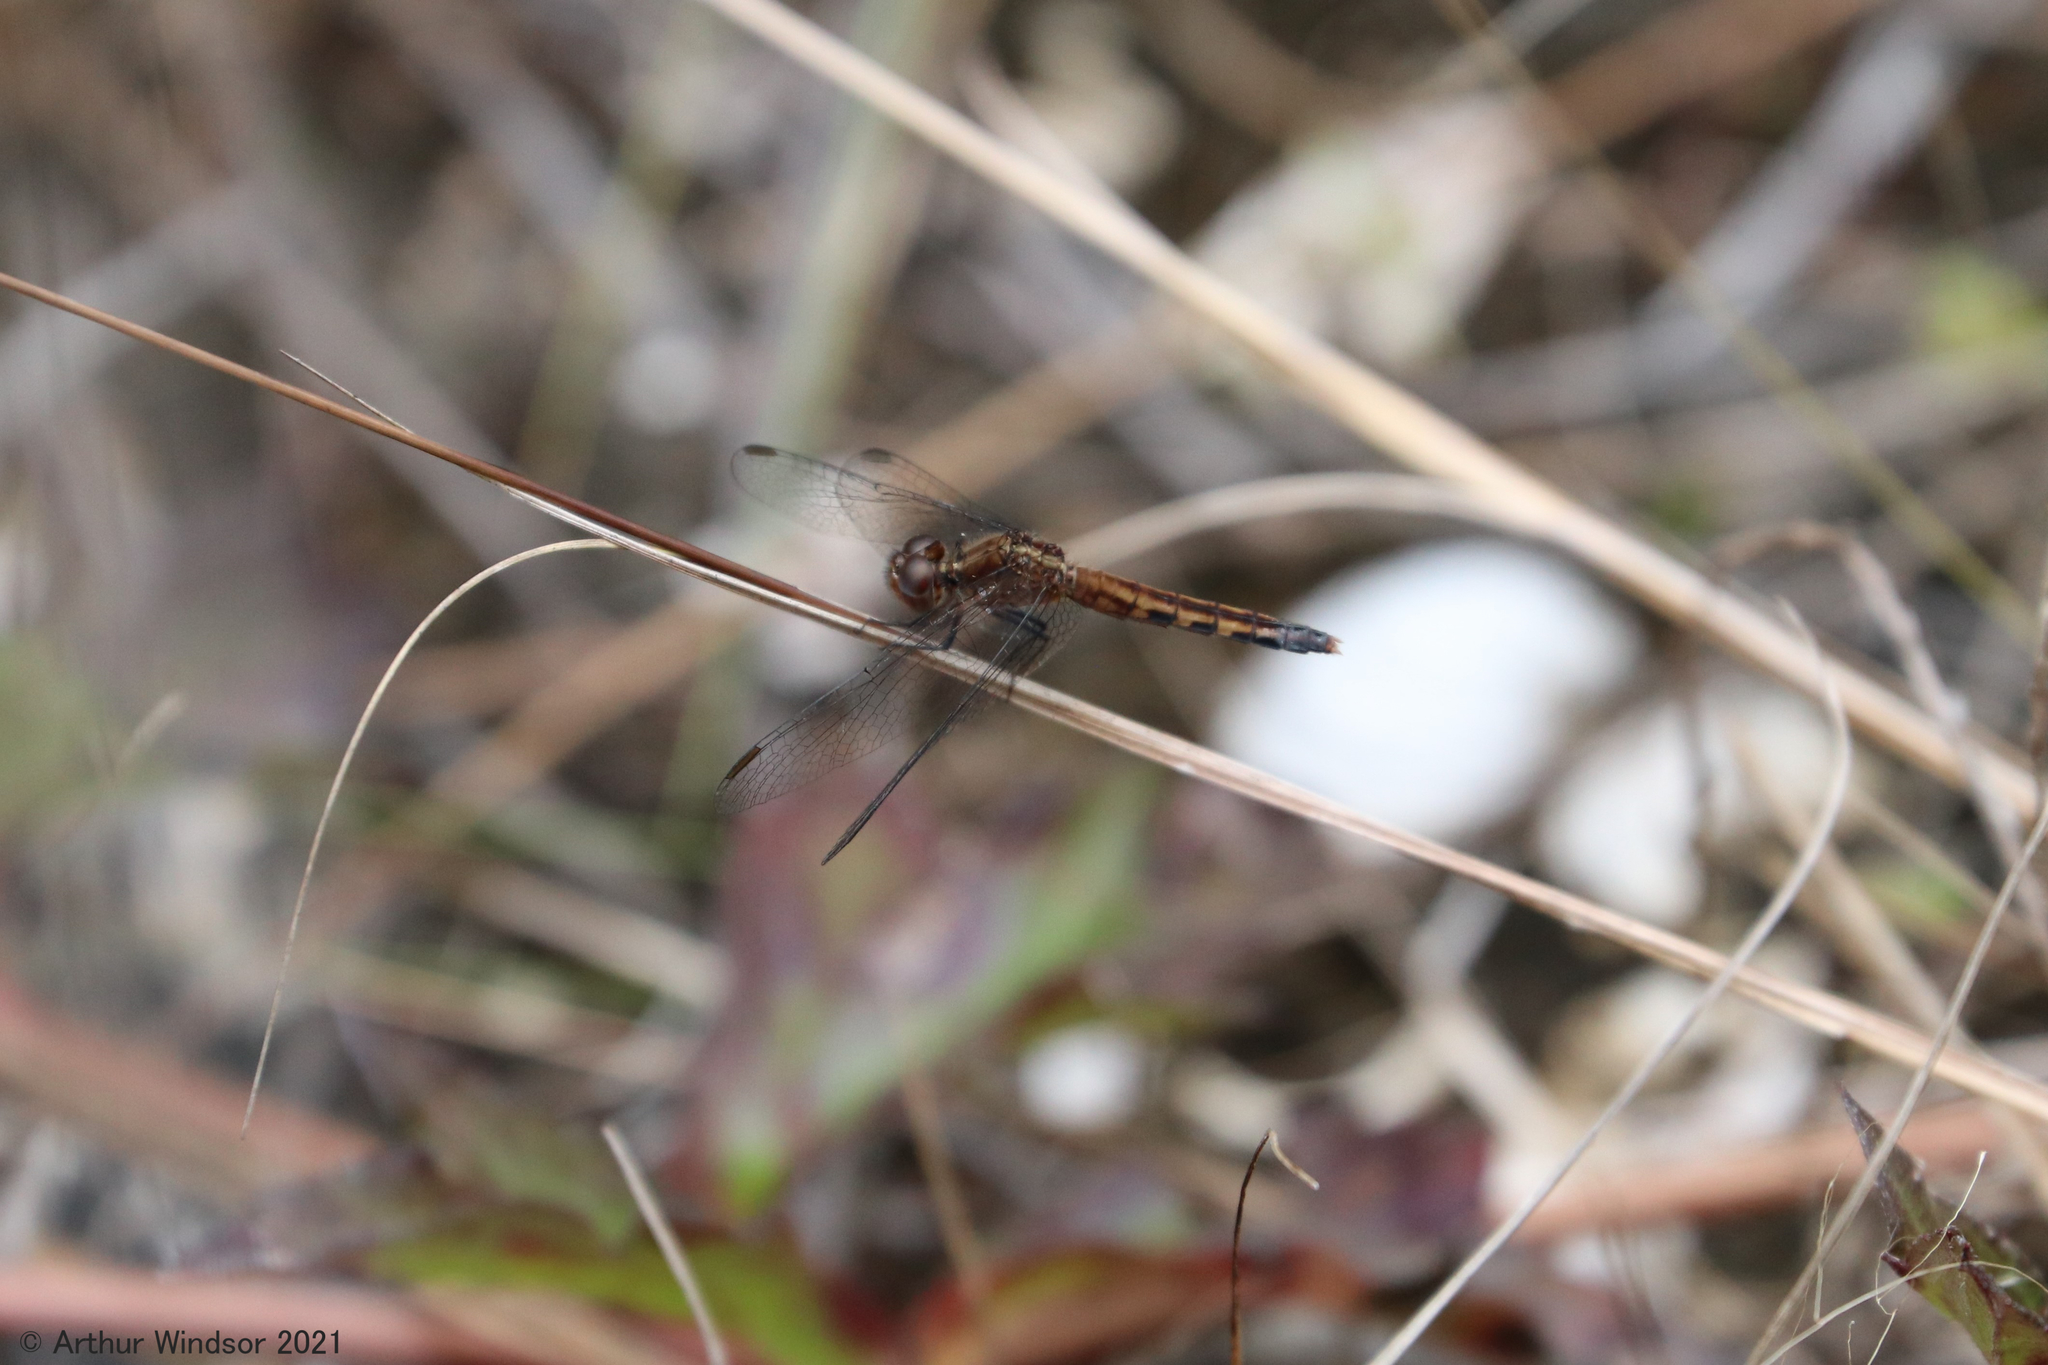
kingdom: Animalia
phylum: Arthropoda
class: Insecta
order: Odonata
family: Libellulidae
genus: Erythrodiplax
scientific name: Erythrodiplax minuscula
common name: Little blue dragonlet
